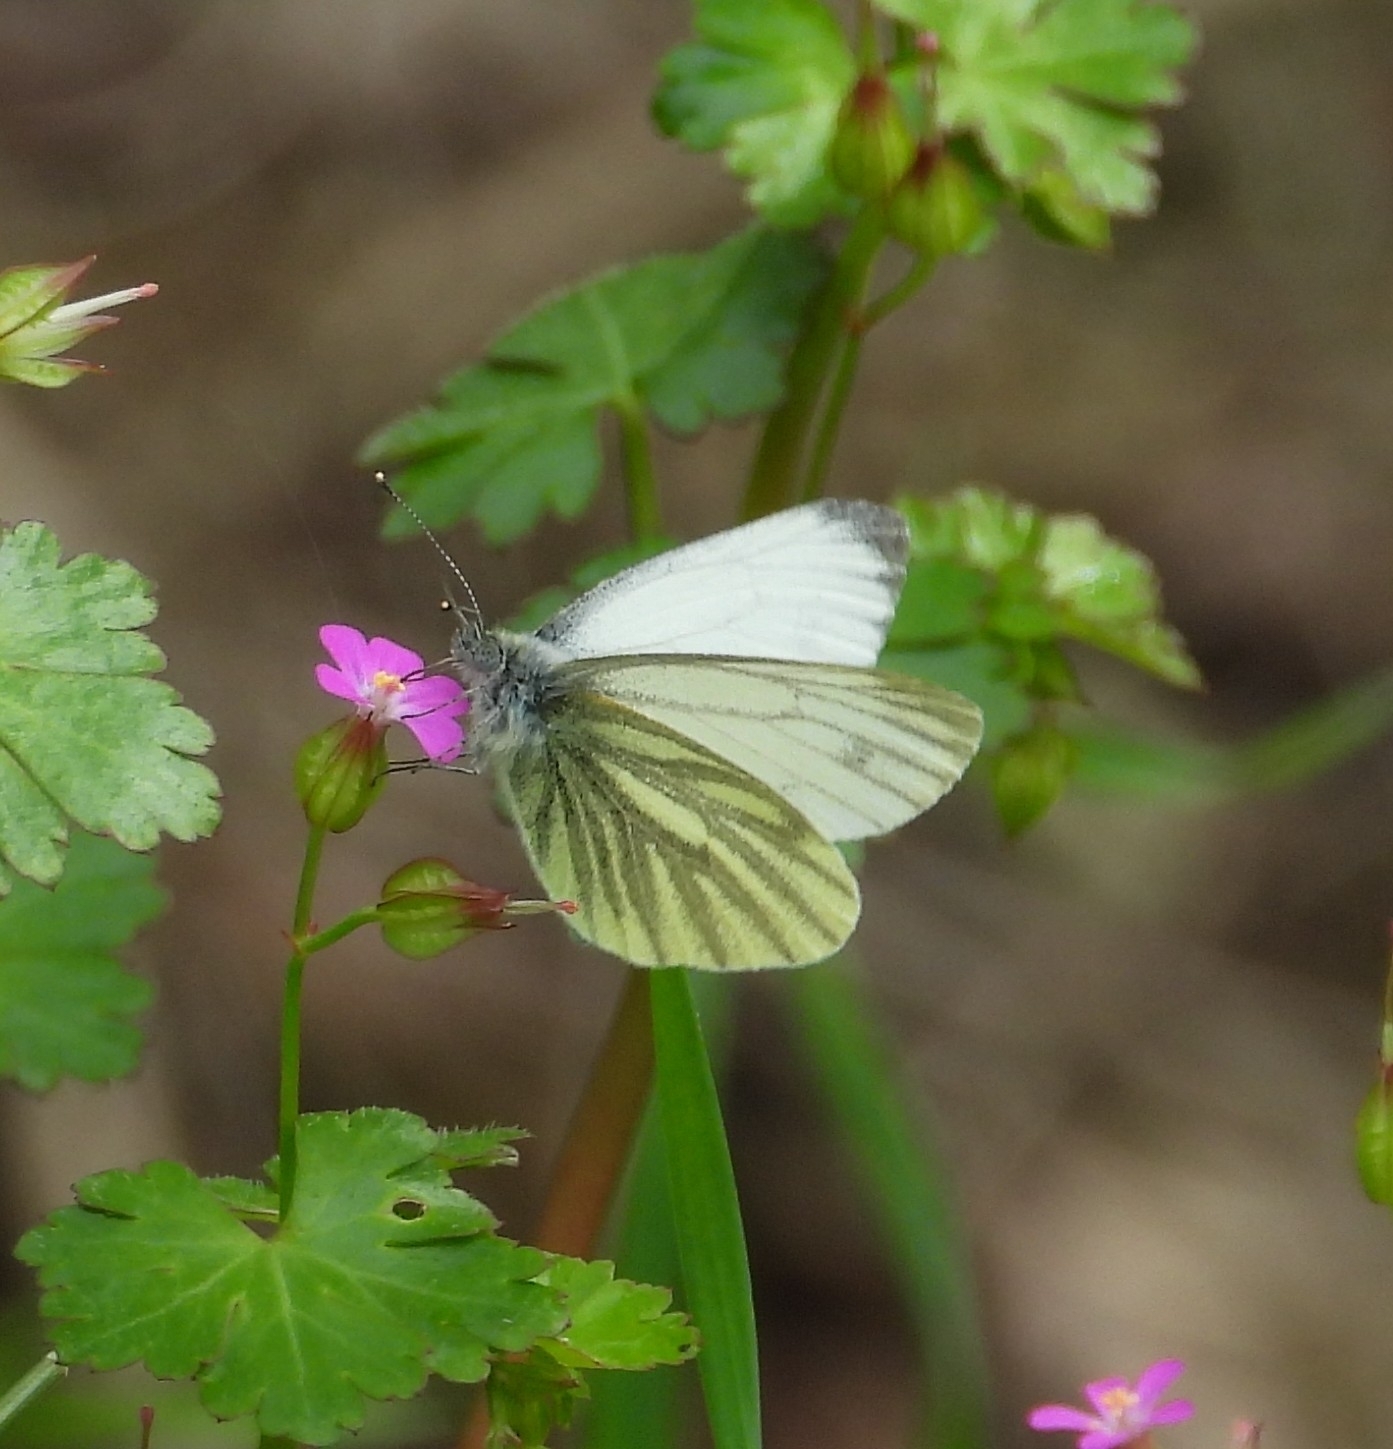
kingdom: Animalia
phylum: Arthropoda
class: Insecta
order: Lepidoptera
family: Pieridae
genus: Pieris
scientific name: Pieris napi
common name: Green-veined white
